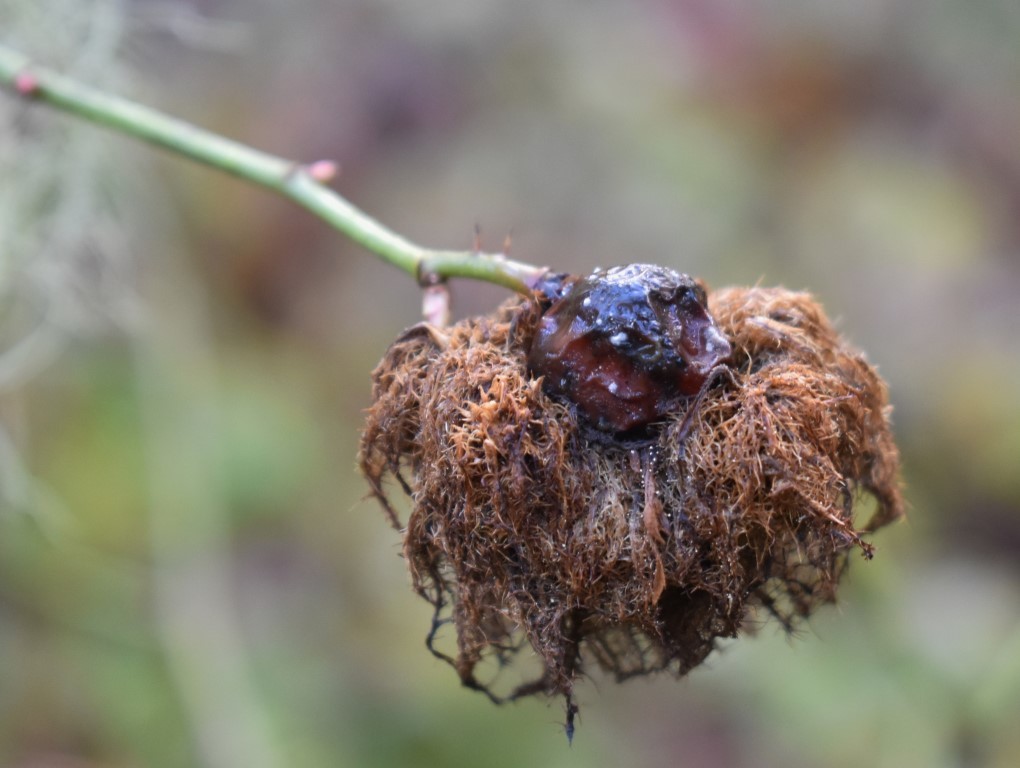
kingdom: Plantae
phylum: Tracheophyta
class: Magnoliopsida
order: Rosales
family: Rosaceae
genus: Rosa
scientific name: Rosa rubiginosa
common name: Sweet-briar
